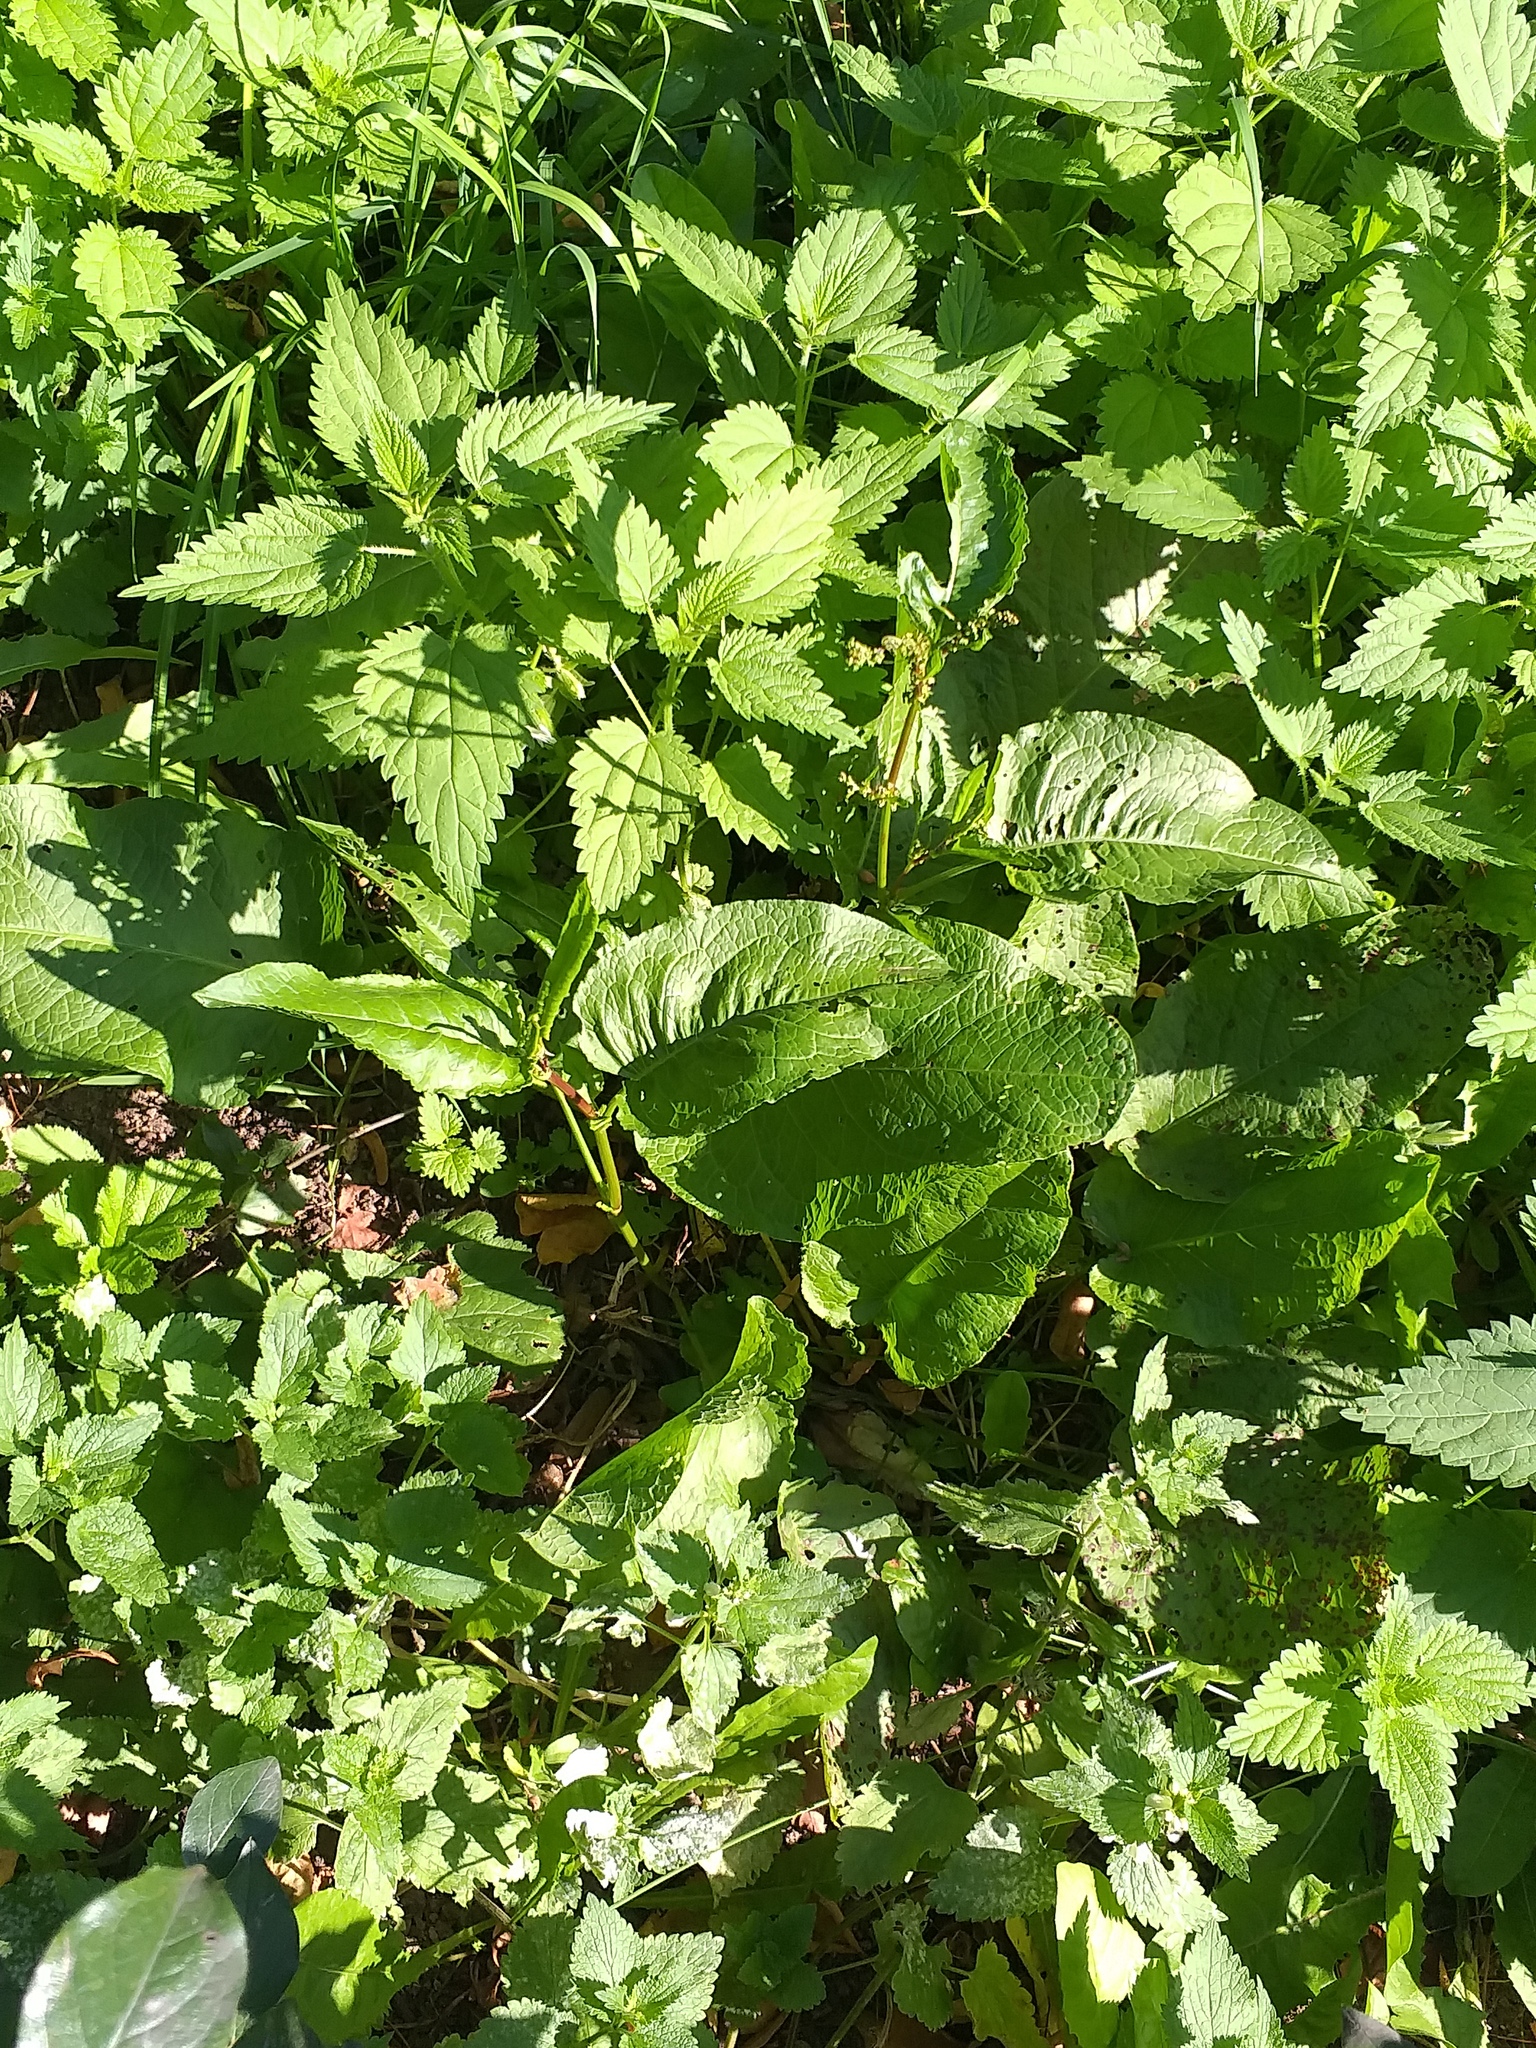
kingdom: Plantae
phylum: Tracheophyta
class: Magnoliopsida
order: Caryophyllales
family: Polygonaceae
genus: Rumex
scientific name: Rumex obtusifolius
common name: Bitter dock
